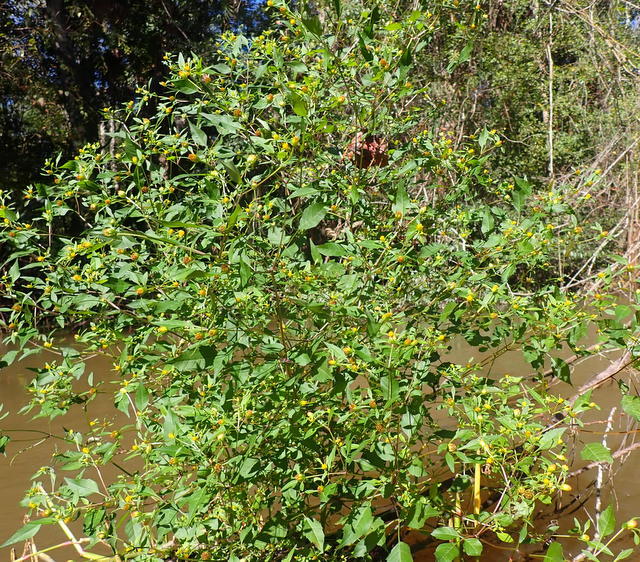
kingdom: Plantae
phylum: Tracheophyta
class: Magnoliopsida
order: Asterales
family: Asteraceae
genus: Bidens
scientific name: Bidens discoidea
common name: Discoide beggarticks
